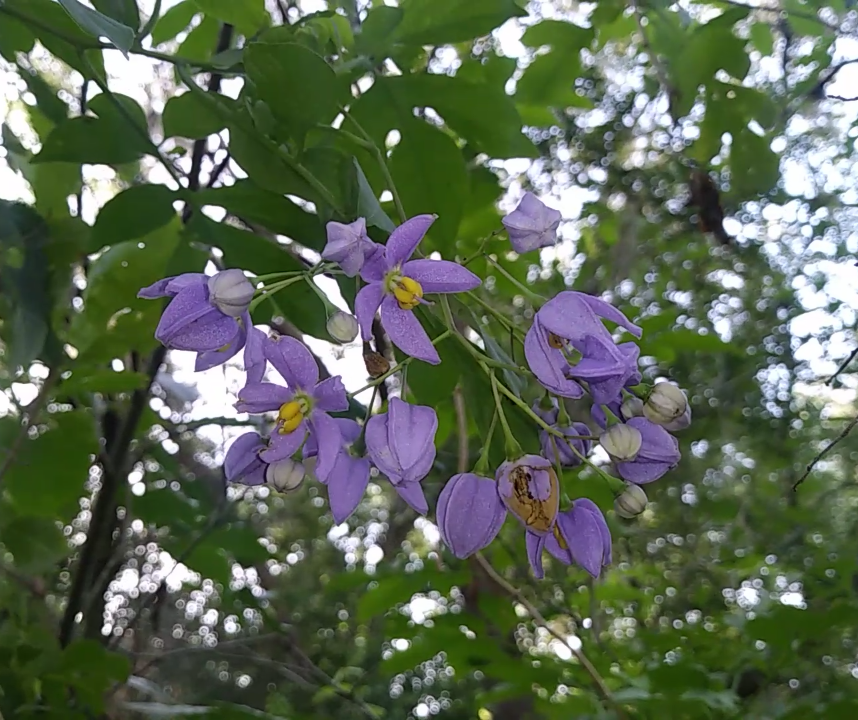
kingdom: Plantae
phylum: Tracheophyta
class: Magnoliopsida
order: Solanales
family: Solanaceae
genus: Solanum
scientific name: Solanum seaforthianum
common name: Brazilian nightshade
